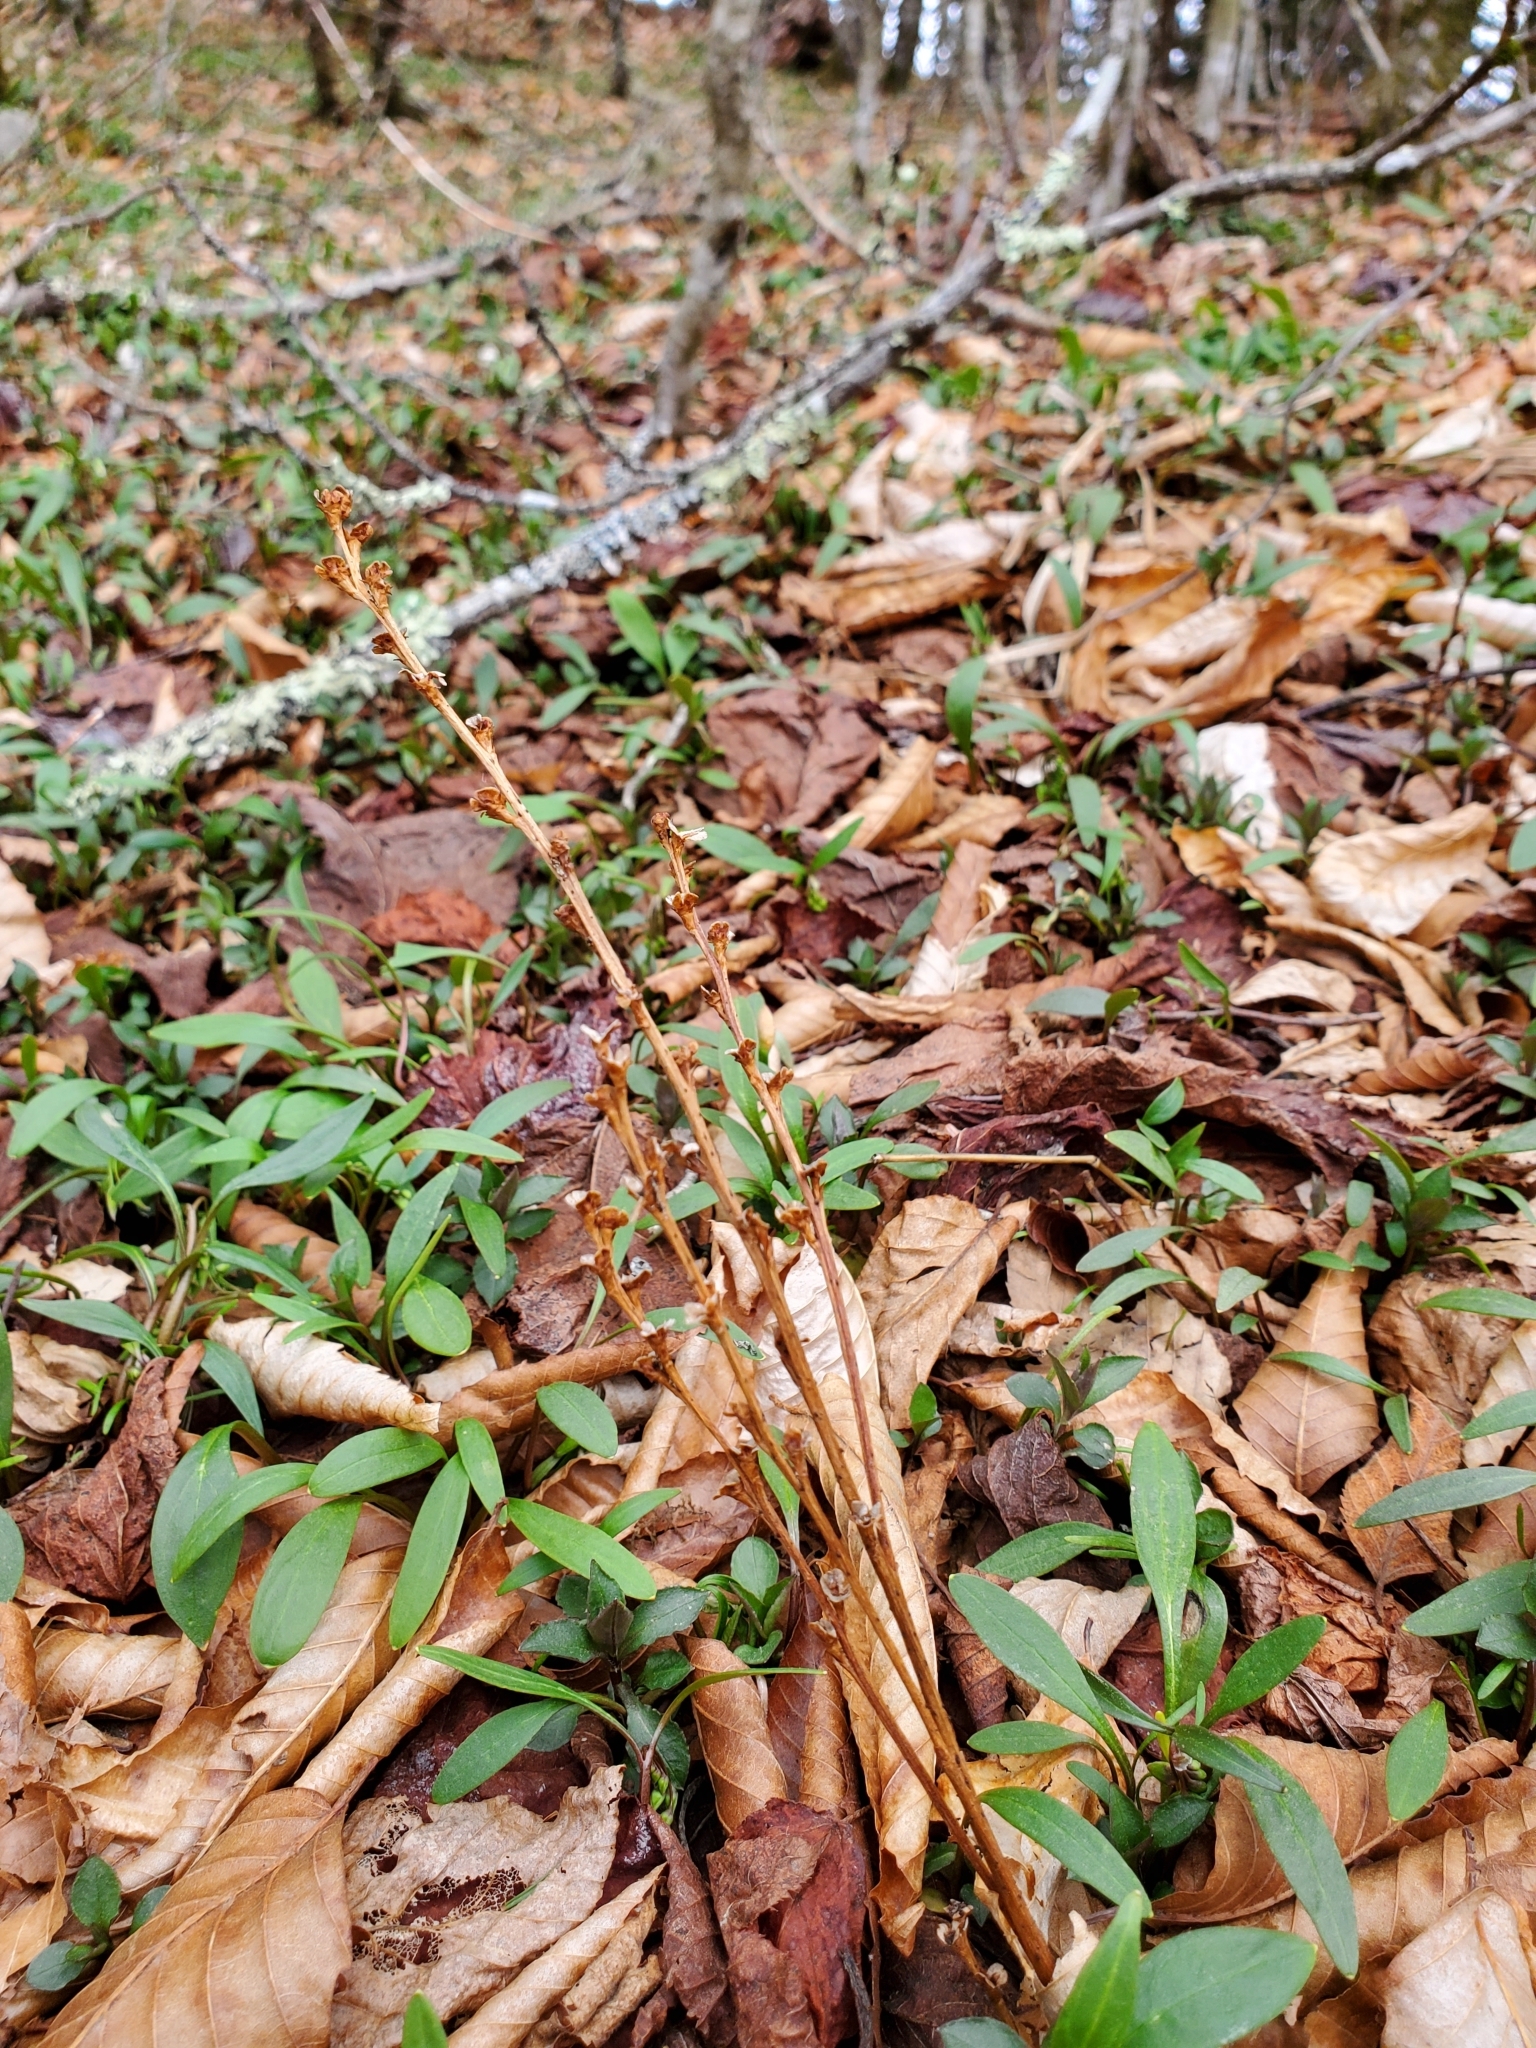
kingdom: Plantae
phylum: Tracheophyta
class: Magnoliopsida
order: Lamiales
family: Orobanchaceae
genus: Epifagus
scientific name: Epifagus virginiana
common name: Beechdrops
